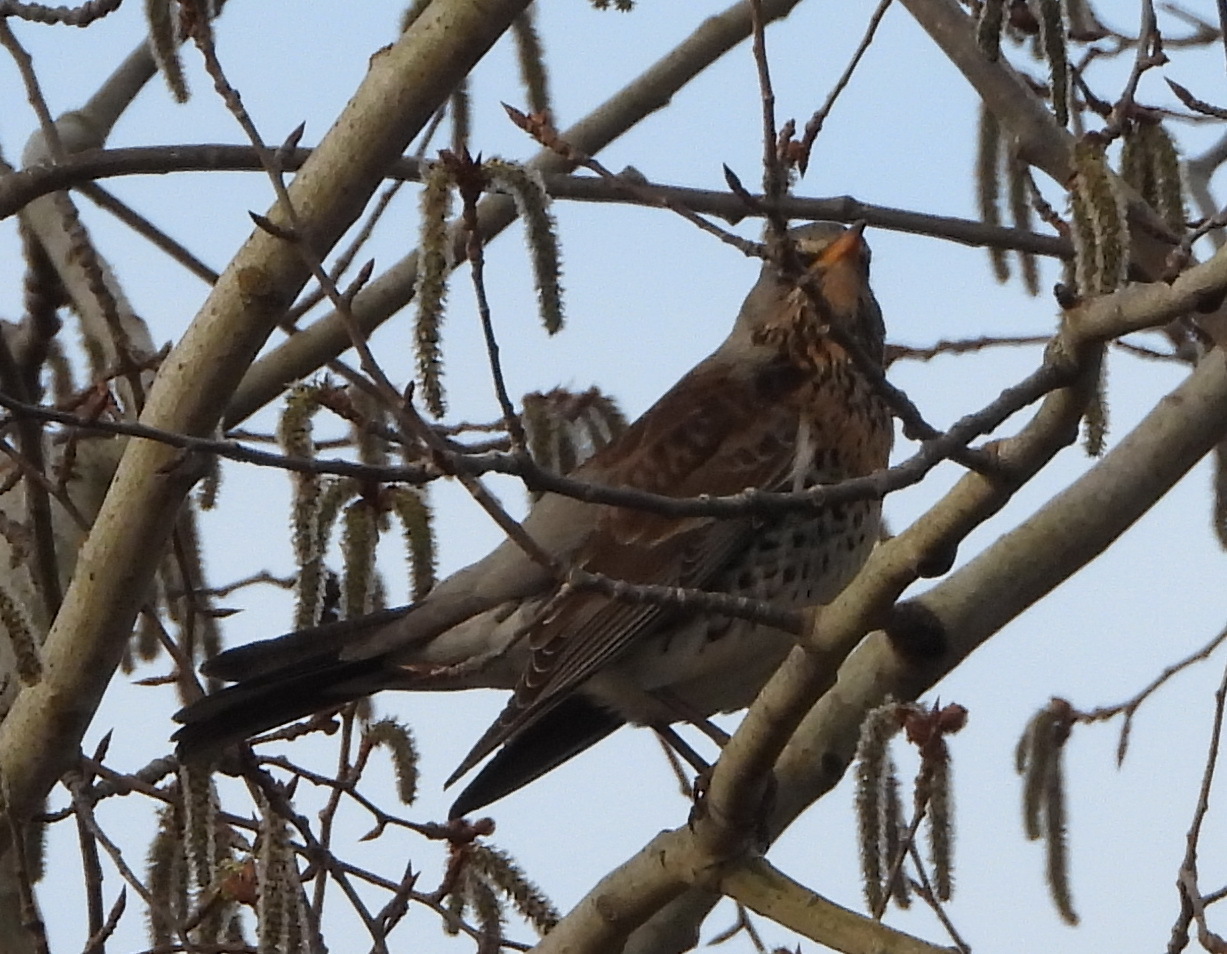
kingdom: Animalia
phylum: Chordata
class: Aves
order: Passeriformes
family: Turdidae
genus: Turdus
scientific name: Turdus pilaris
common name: Fieldfare
